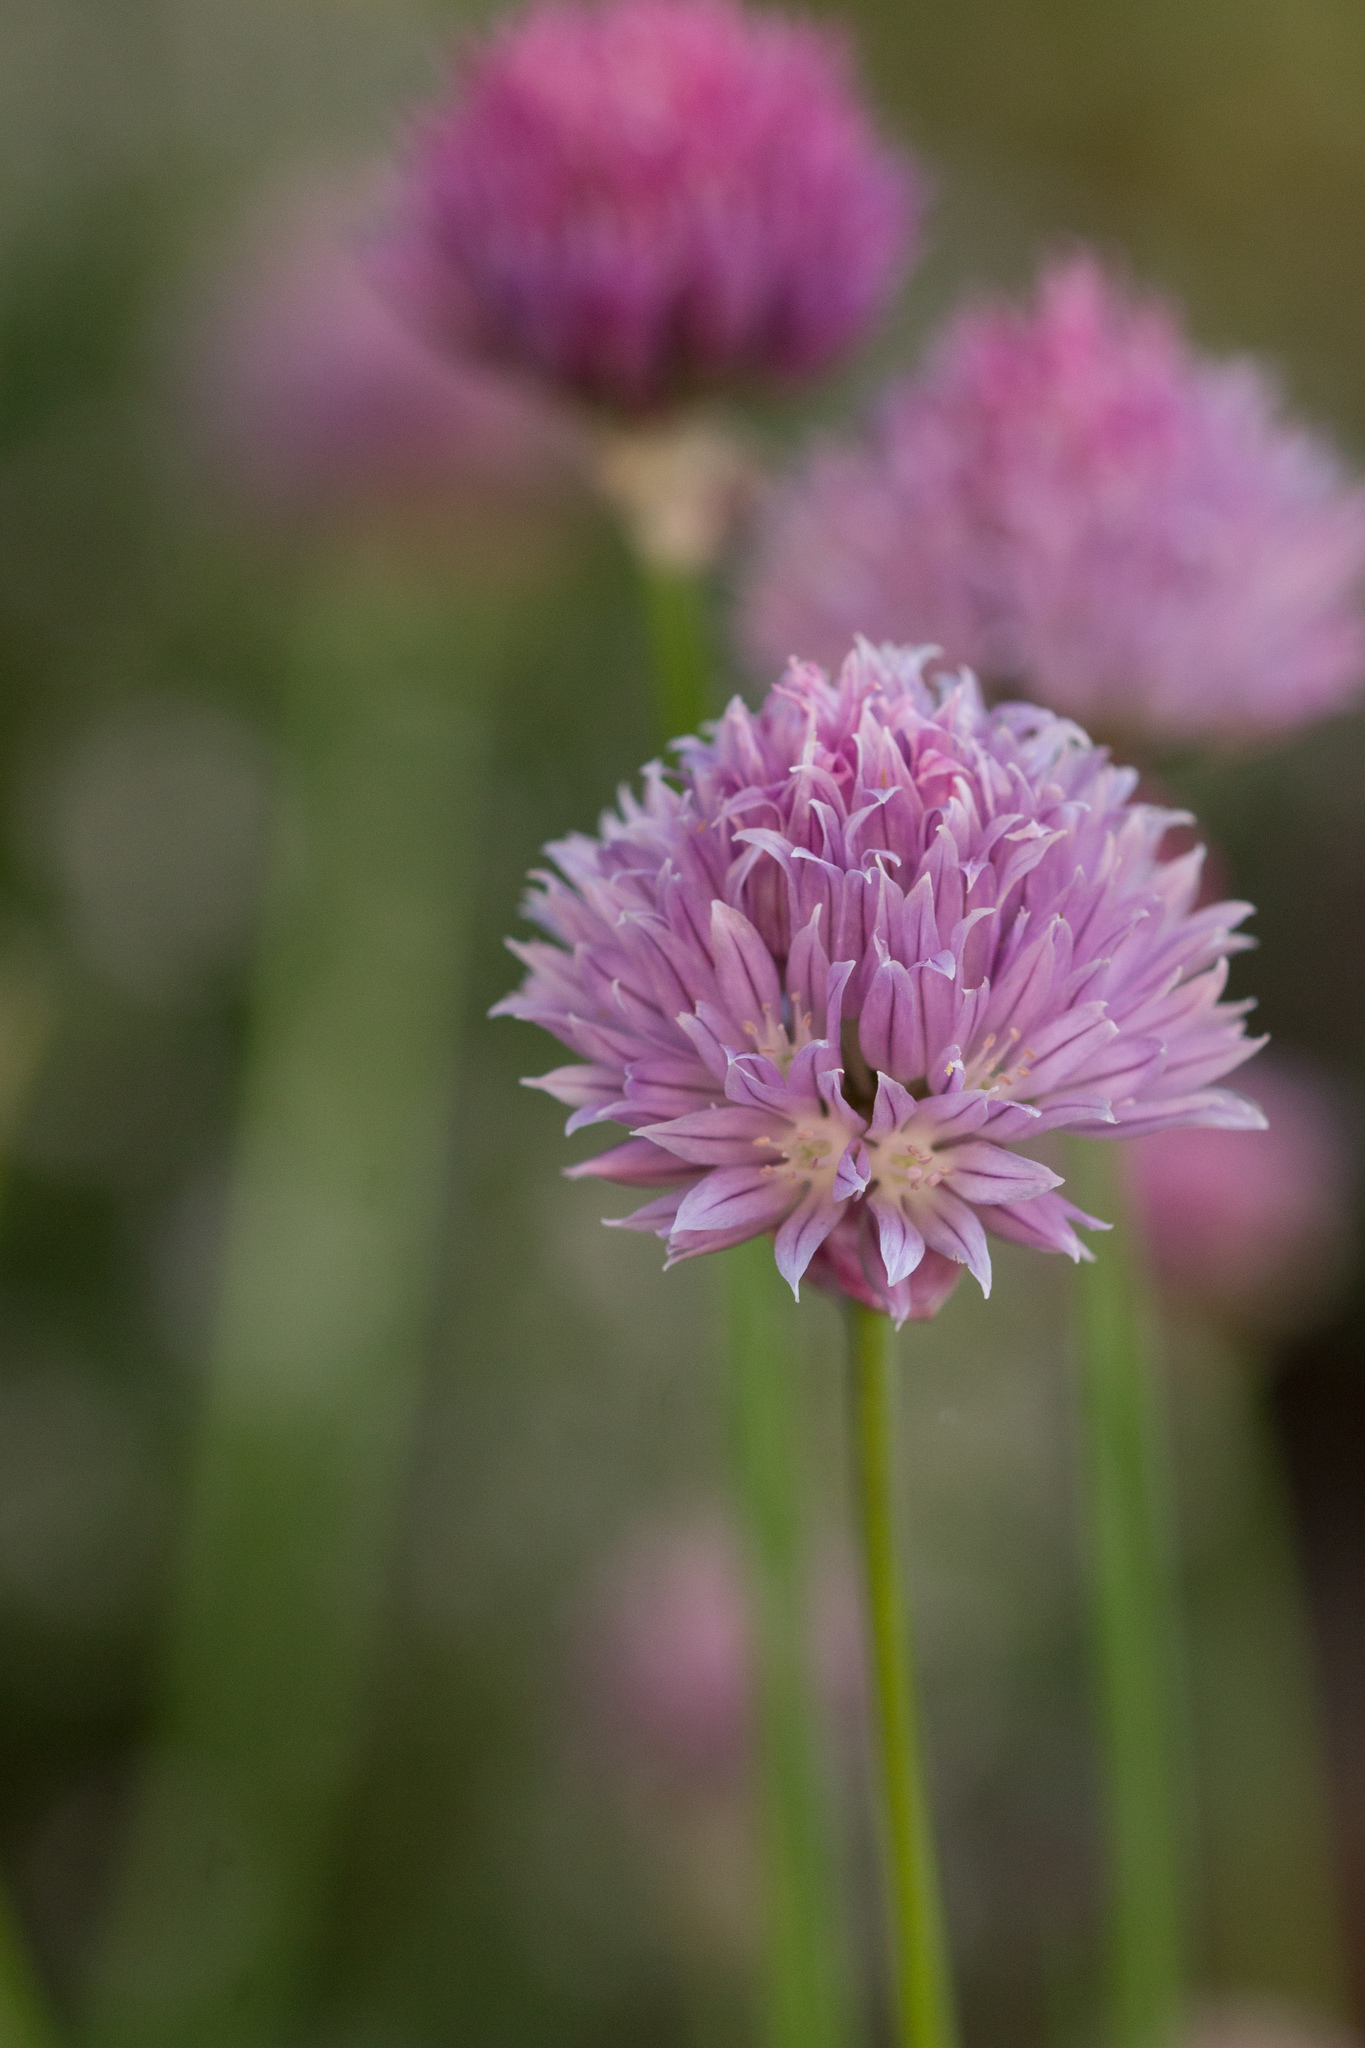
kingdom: Plantae
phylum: Tracheophyta
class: Liliopsida
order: Asparagales
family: Amaryllidaceae
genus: Allium
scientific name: Allium schoenoprasum
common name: Chives
